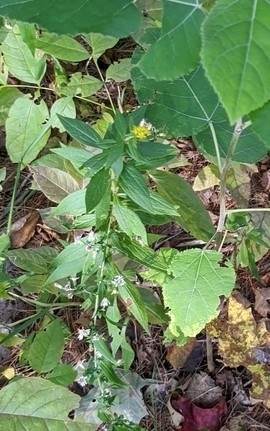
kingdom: Plantae
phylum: Tracheophyta
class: Magnoliopsida
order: Asterales
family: Asteraceae
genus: Solidago
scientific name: Solidago rugosa
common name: Rough-stemmed goldenrod
